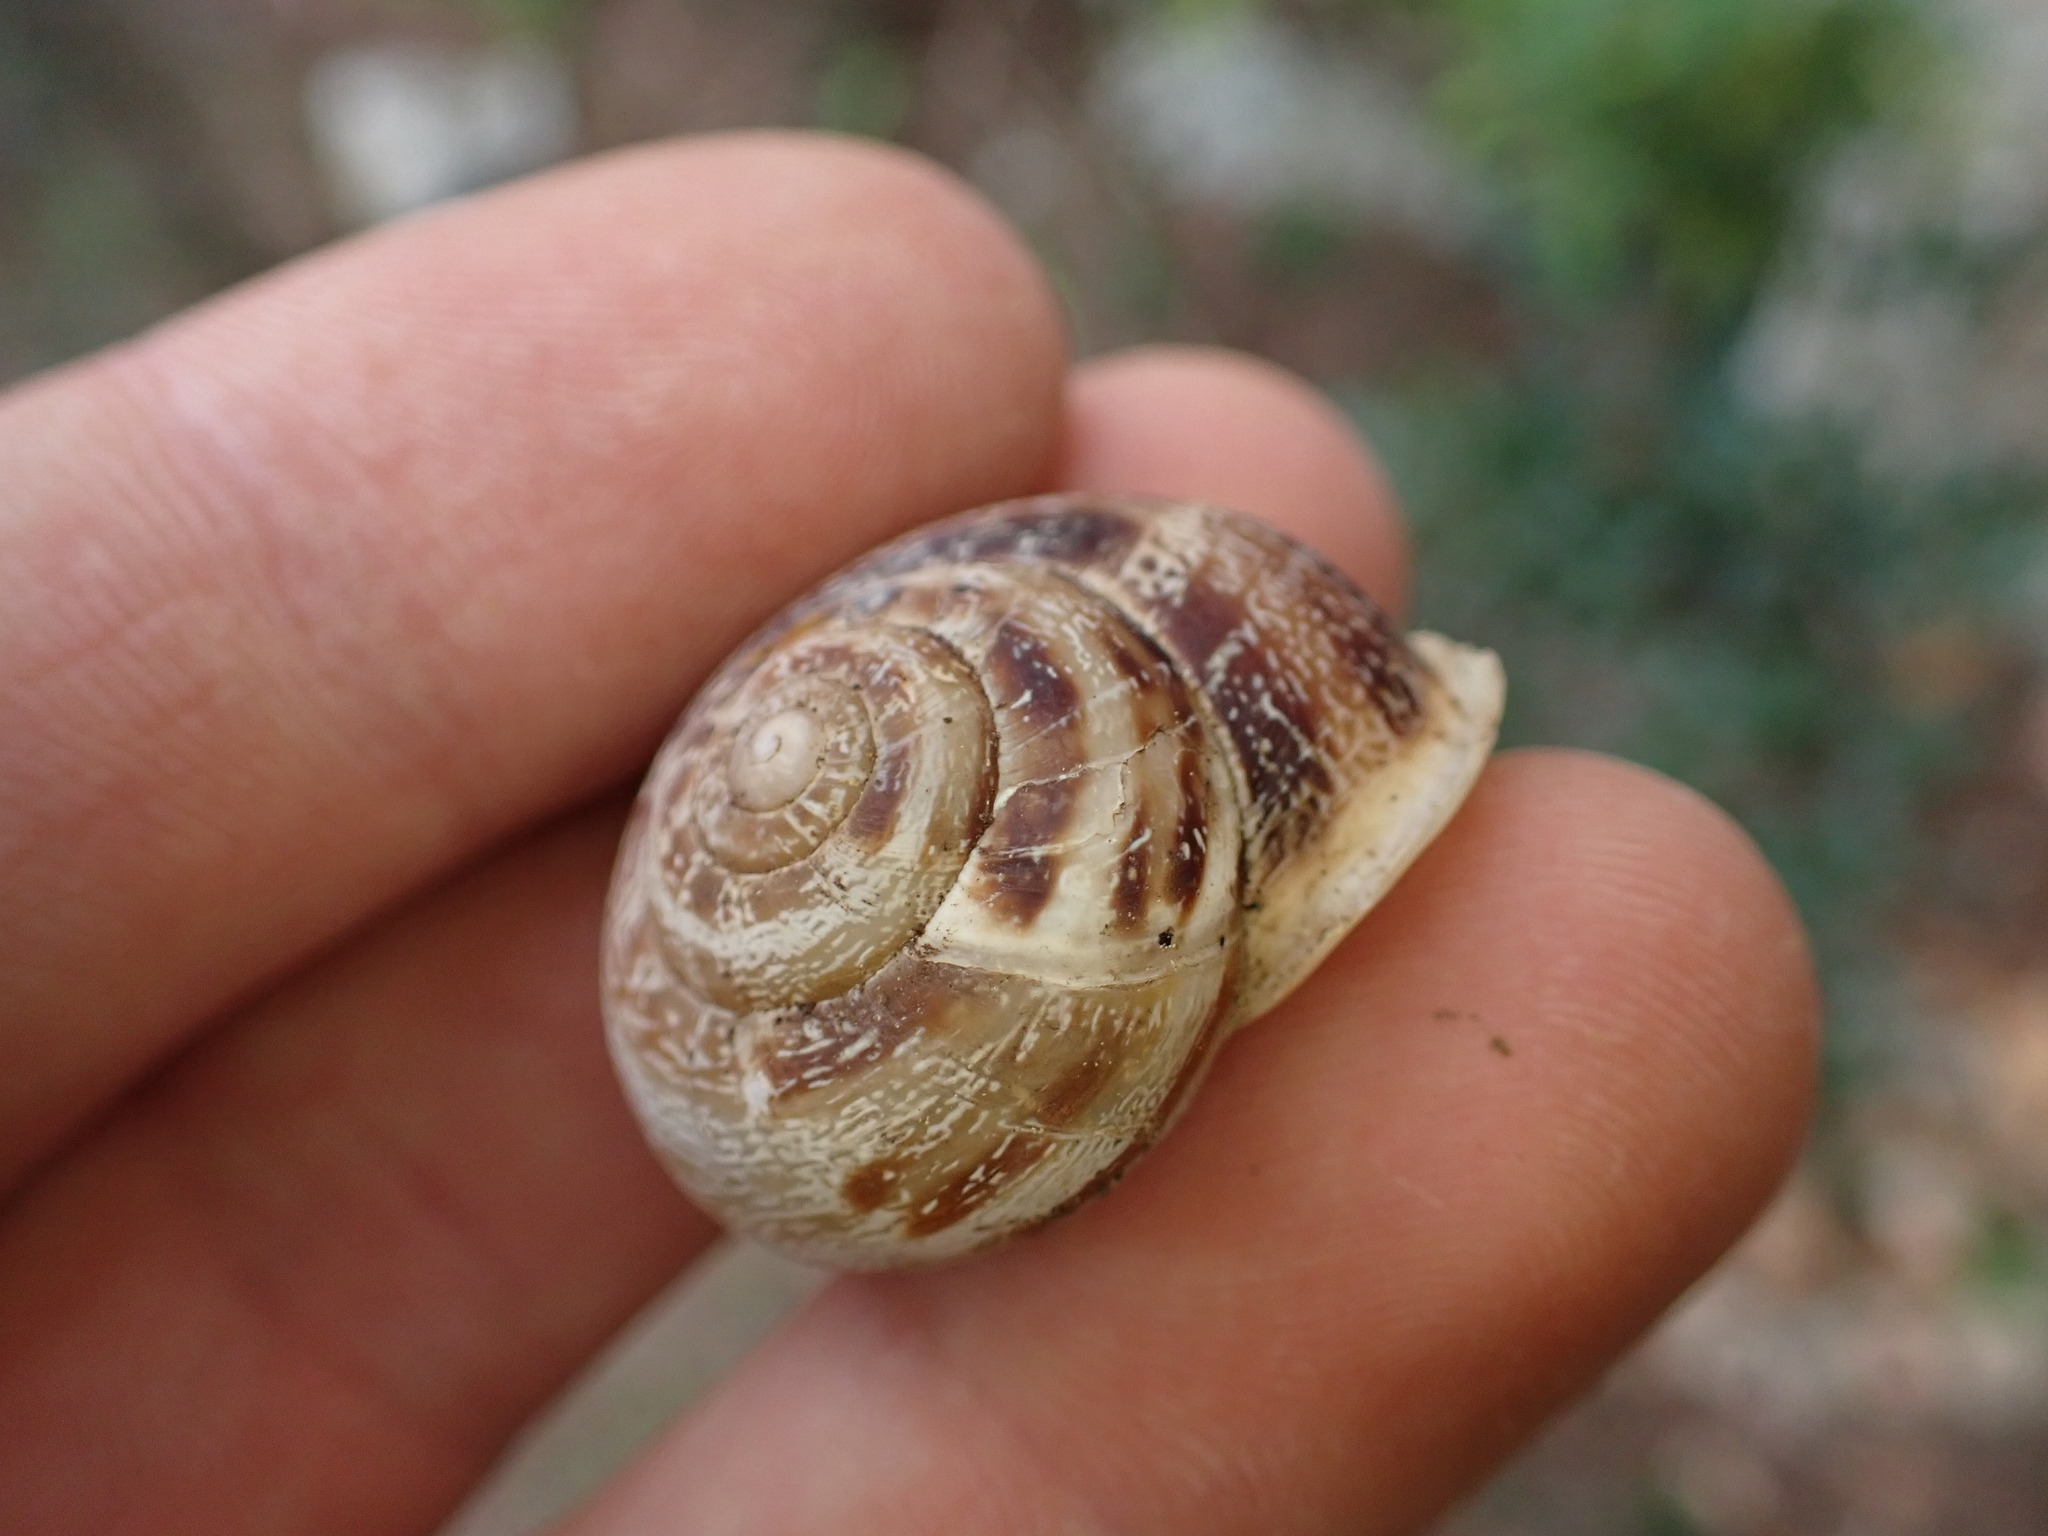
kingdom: Animalia
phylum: Mollusca
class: Gastropoda
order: Stylommatophora
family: Helicidae
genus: Eobania
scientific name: Eobania vermiculata
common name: Chocolateband snail
